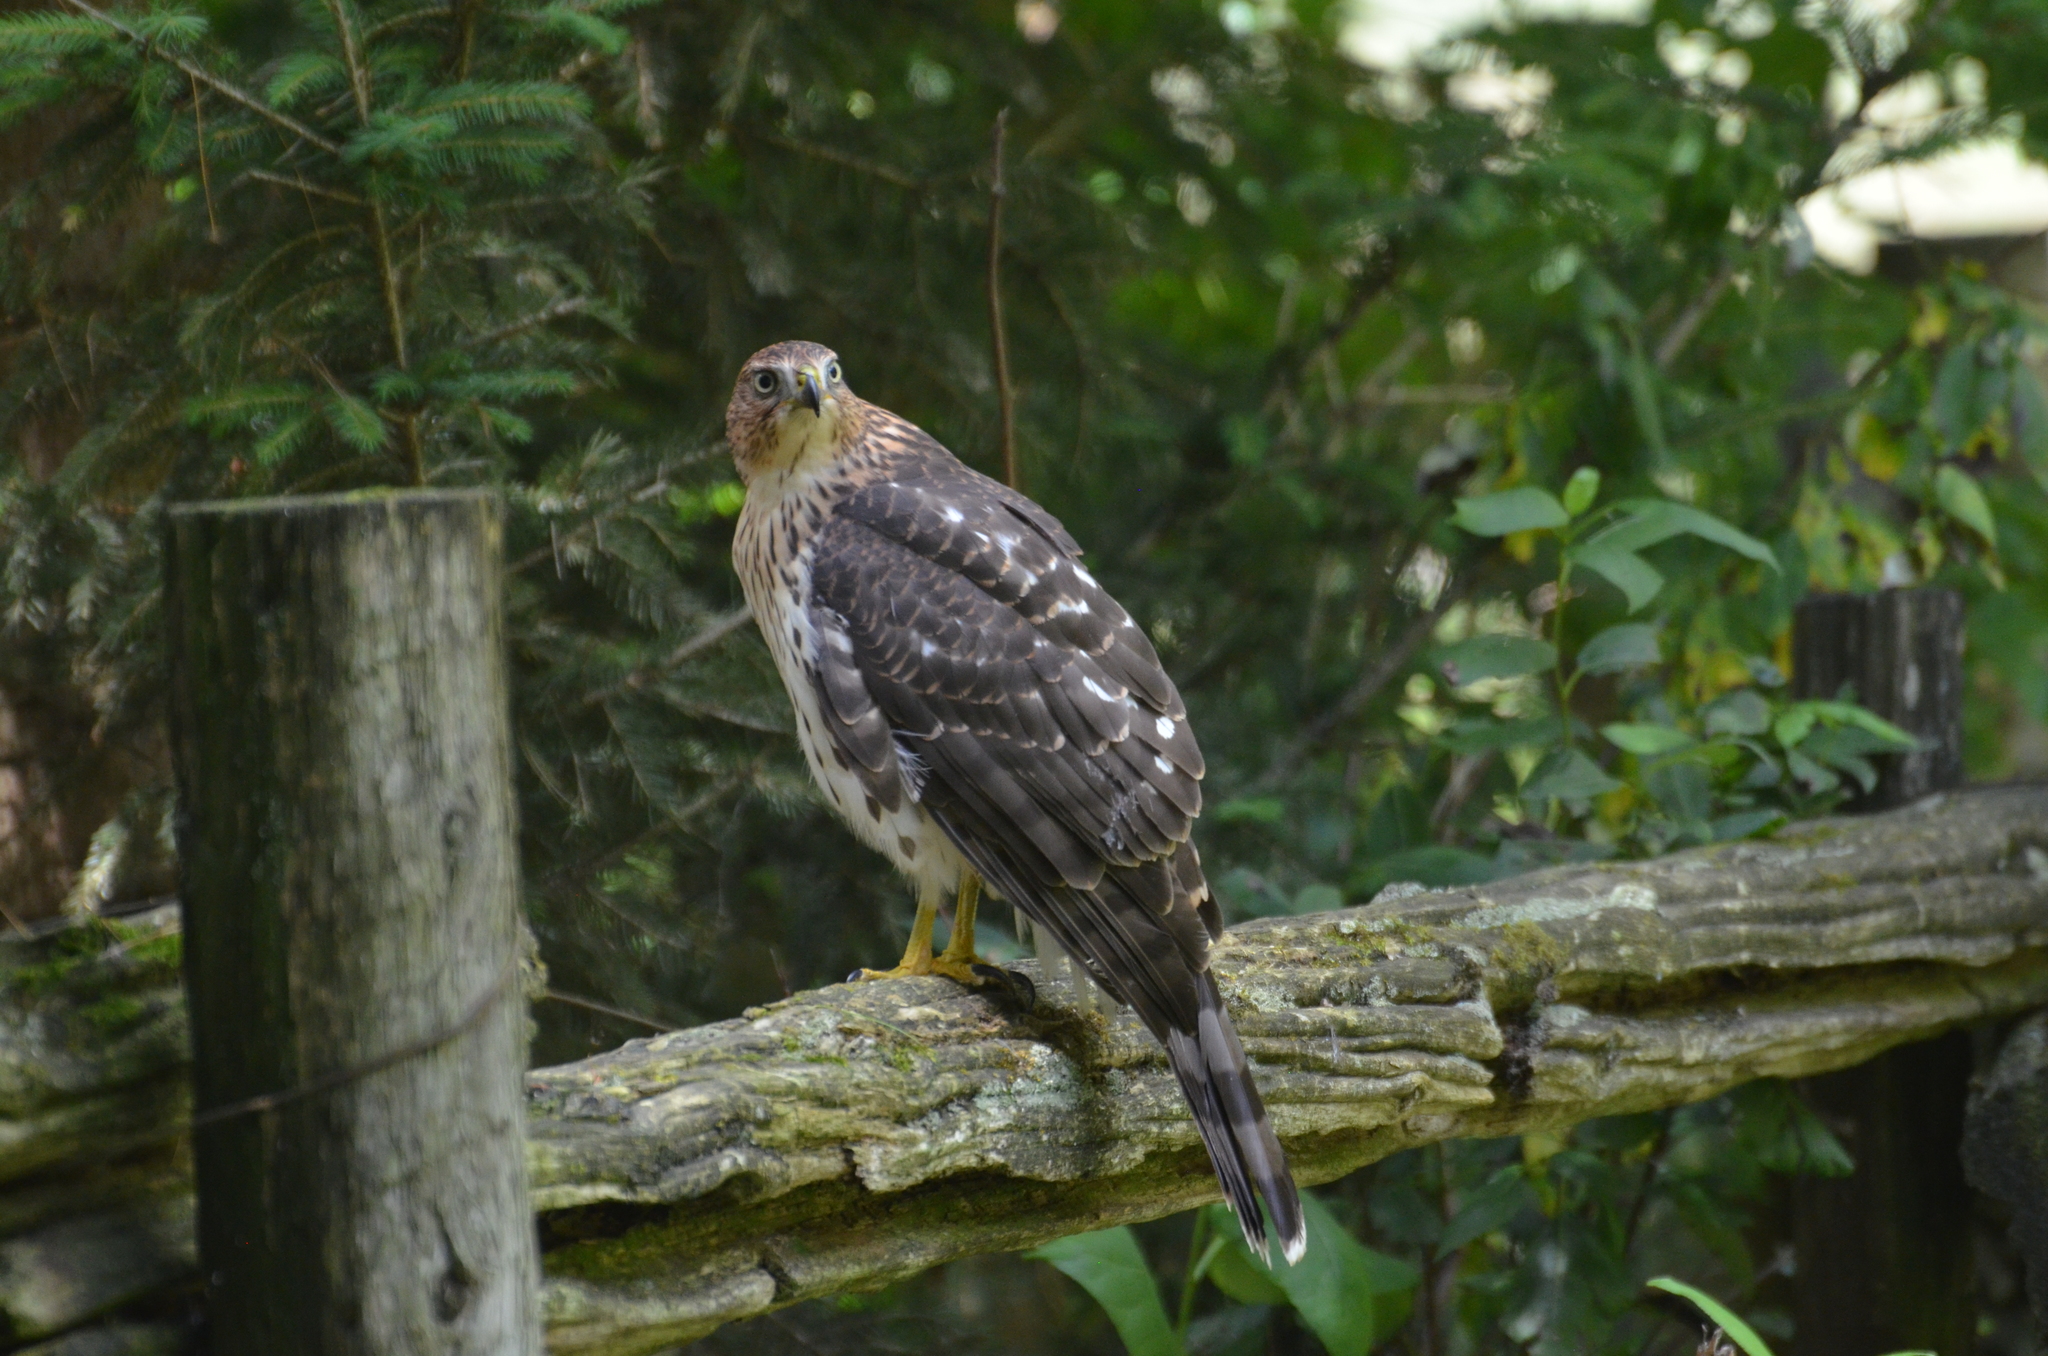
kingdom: Animalia
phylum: Chordata
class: Aves
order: Accipitriformes
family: Accipitridae
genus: Accipiter
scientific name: Accipiter cooperii
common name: Cooper's hawk
